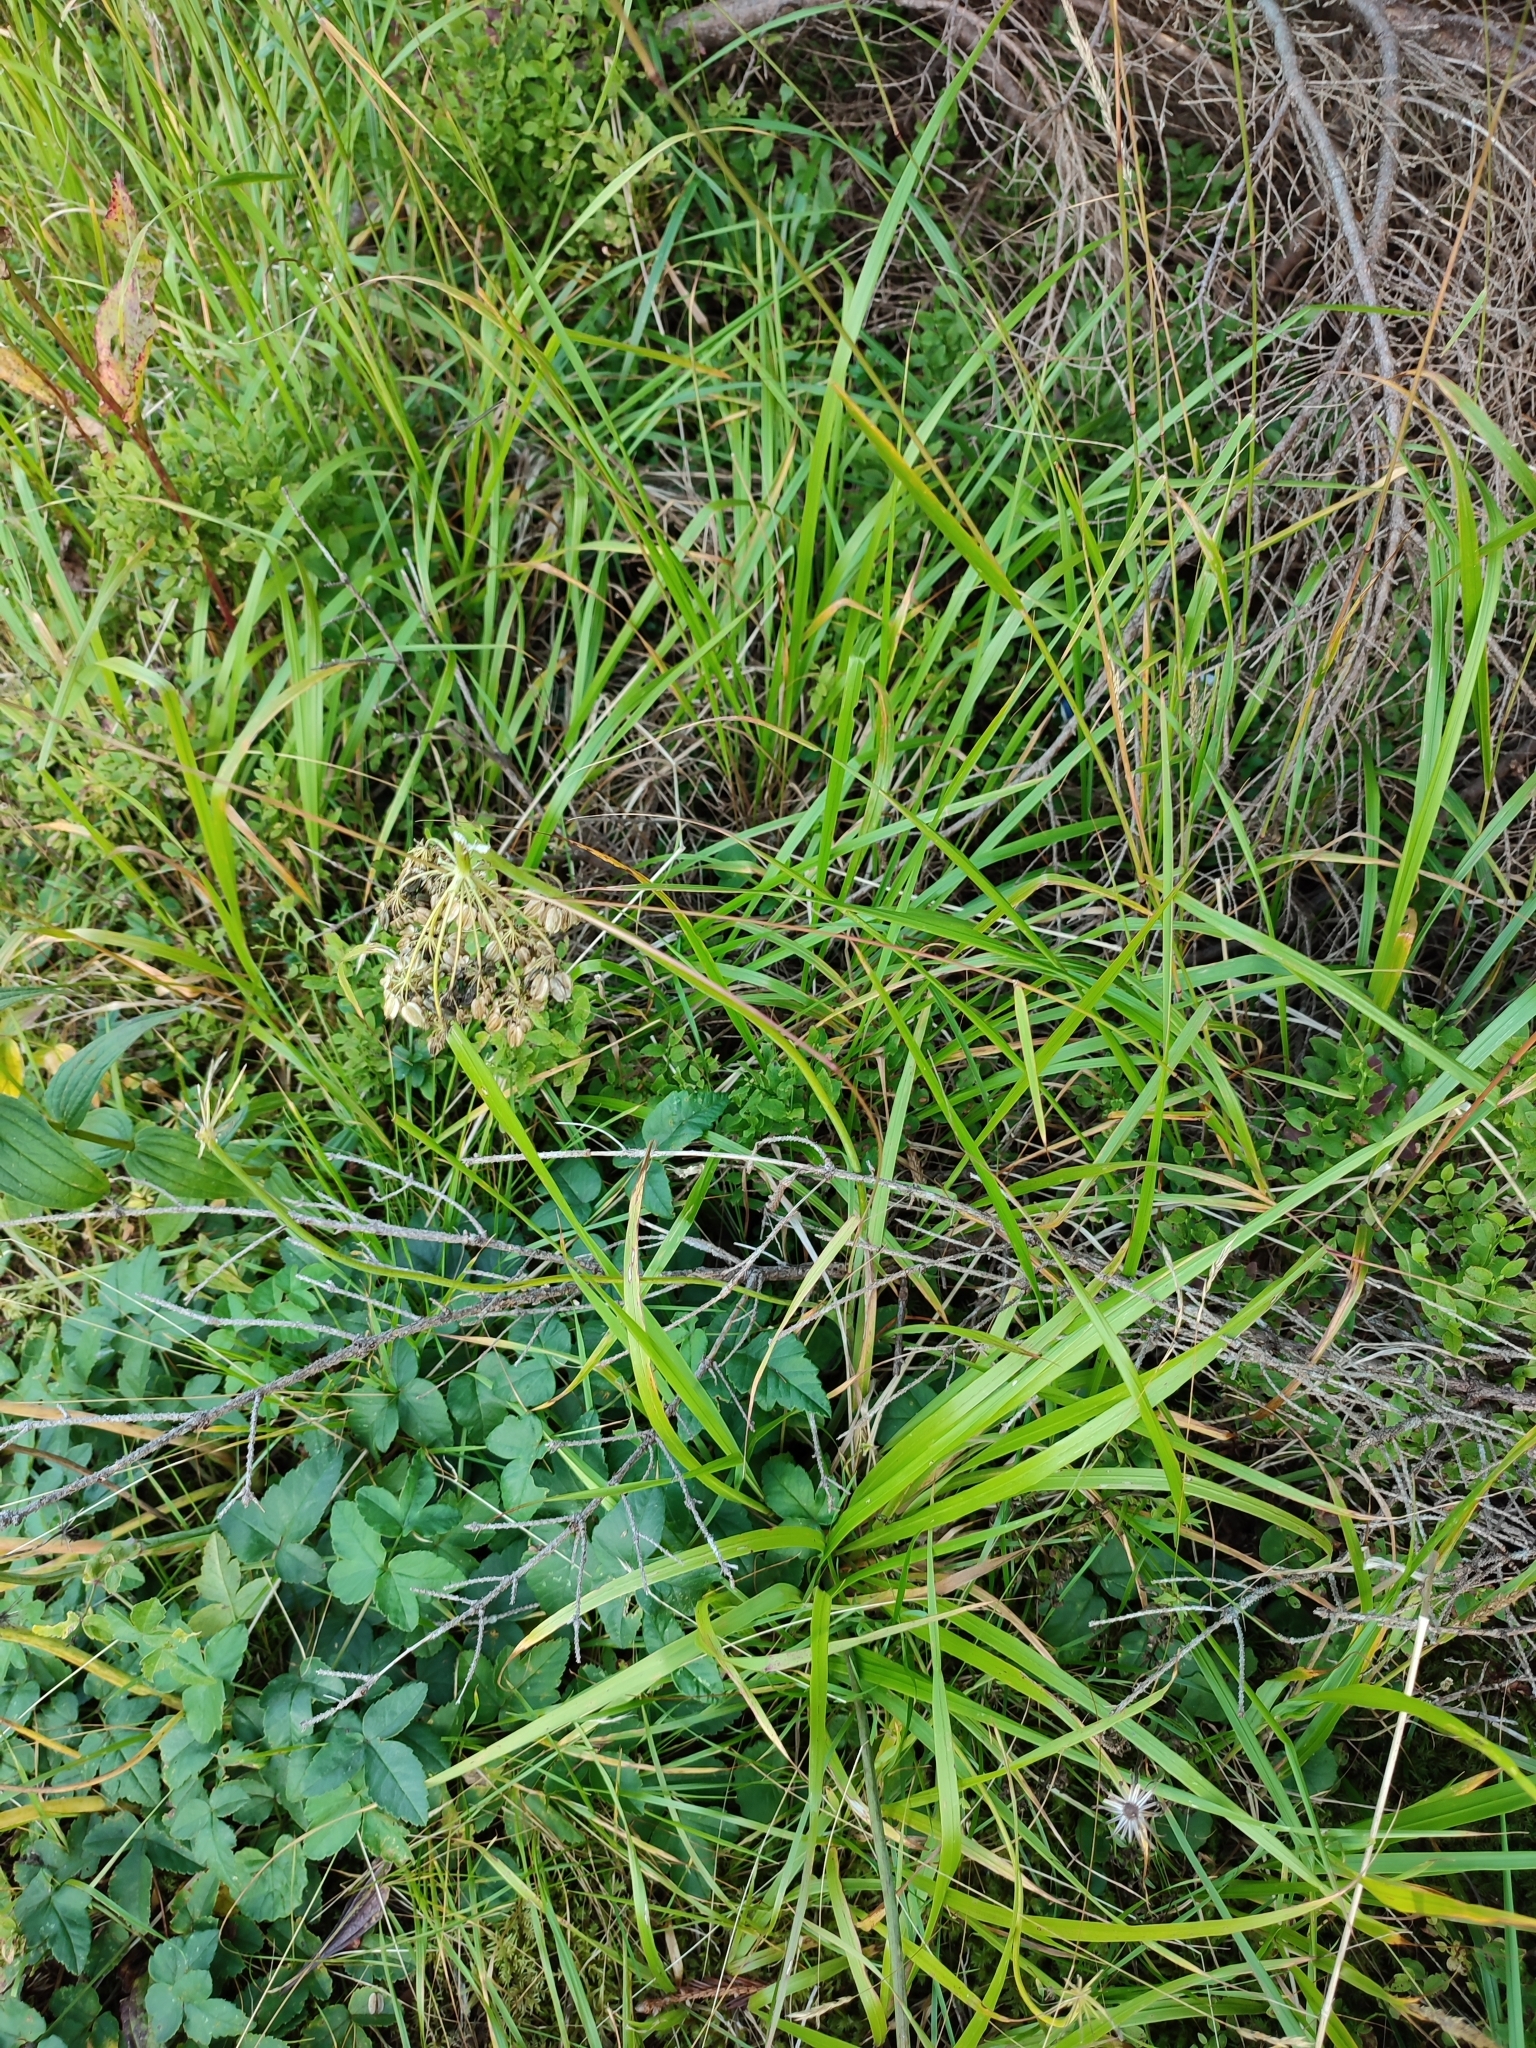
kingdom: Plantae
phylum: Tracheophyta
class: Magnoliopsida
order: Apiales
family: Apiaceae
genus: Laserpitium
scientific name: Laserpitium krapffii
